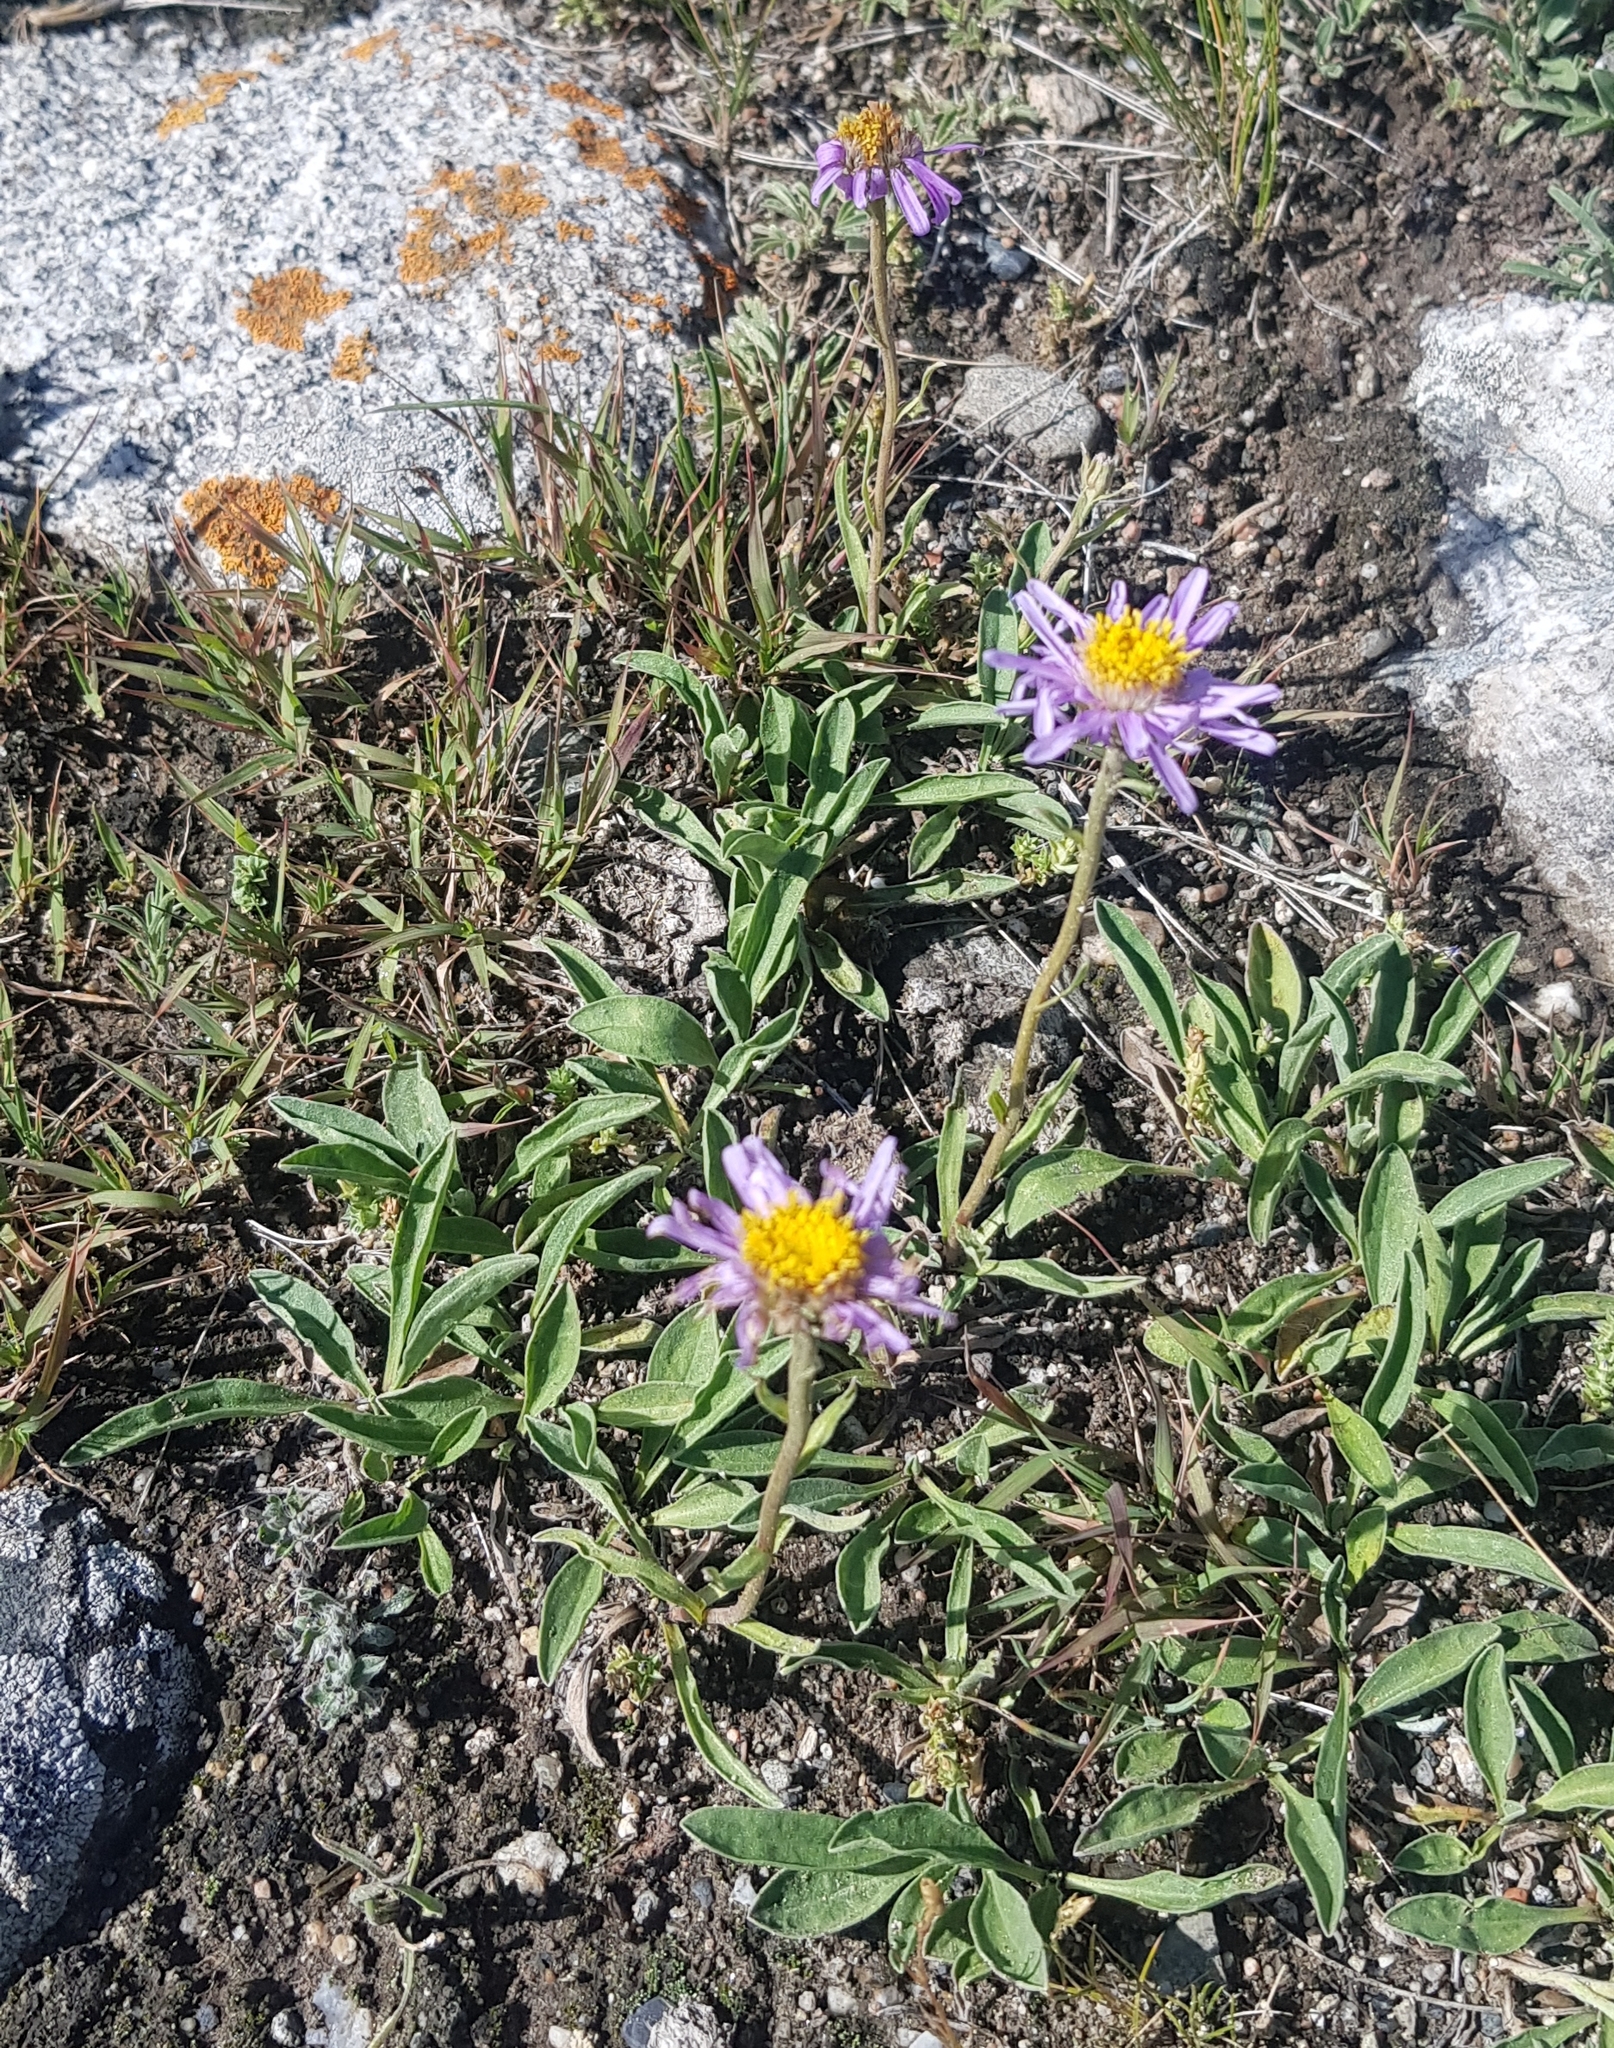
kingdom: Plantae
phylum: Tracheophyta
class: Magnoliopsida
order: Asterales
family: Asteraceae
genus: Aster
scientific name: Aster alpinus
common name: Alpine aster
